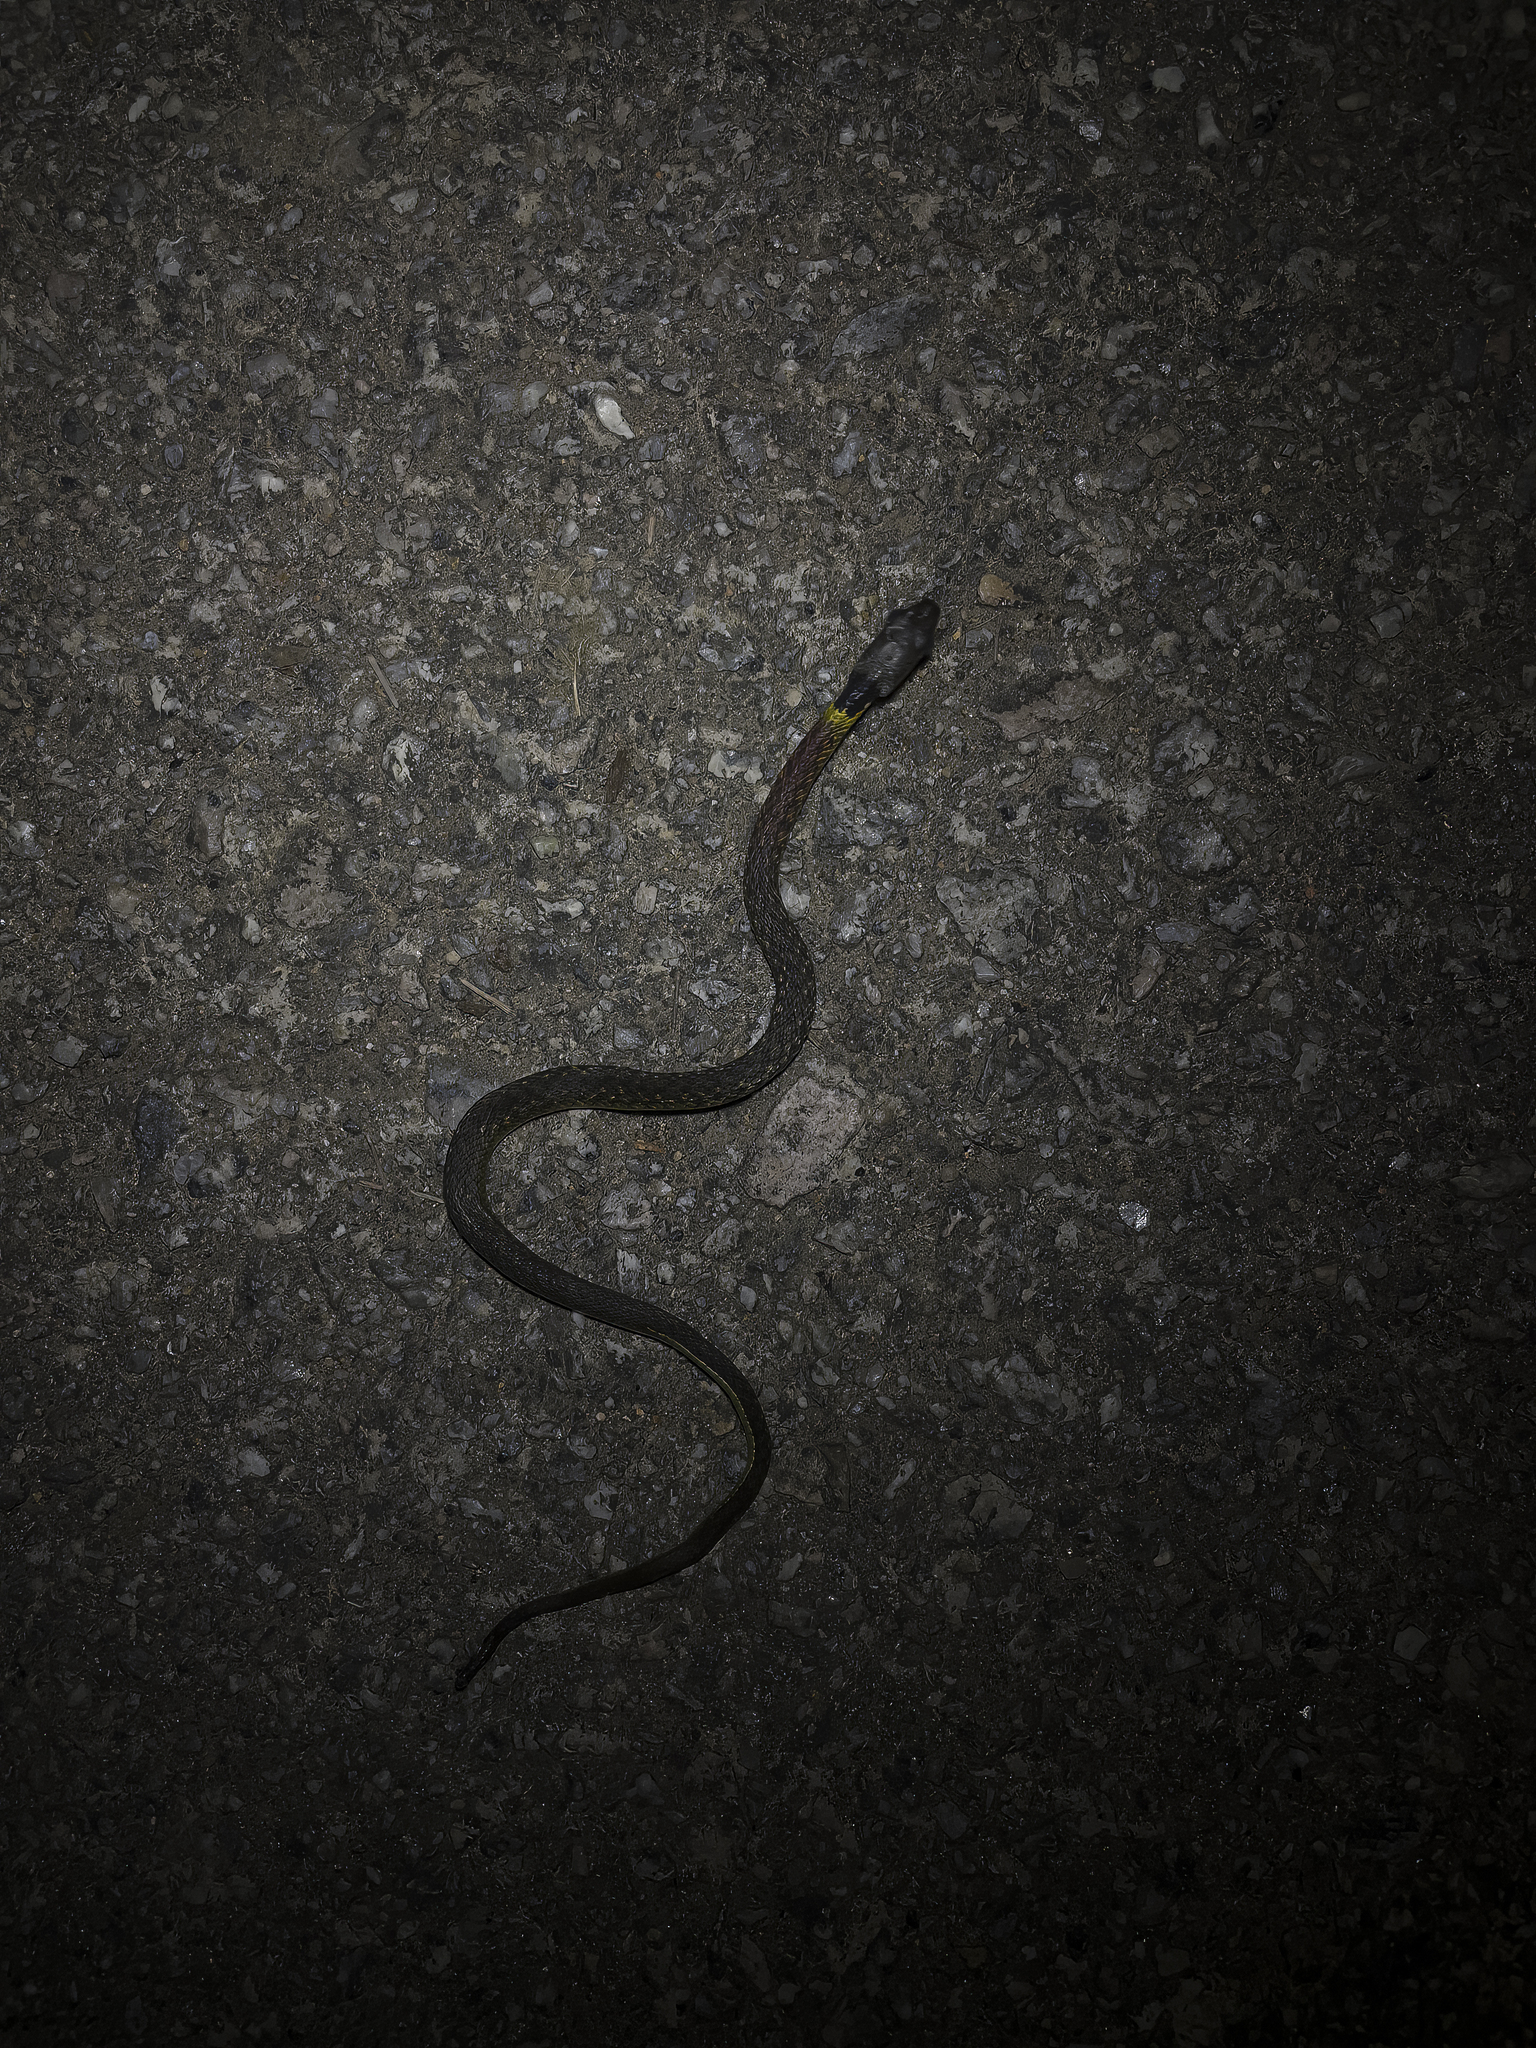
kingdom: Animalia
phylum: Chordata
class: Squamata
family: Colubridae
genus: Rhabdophis
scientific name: Rhabdophis helleri
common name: Heller’s red-necked keelback
